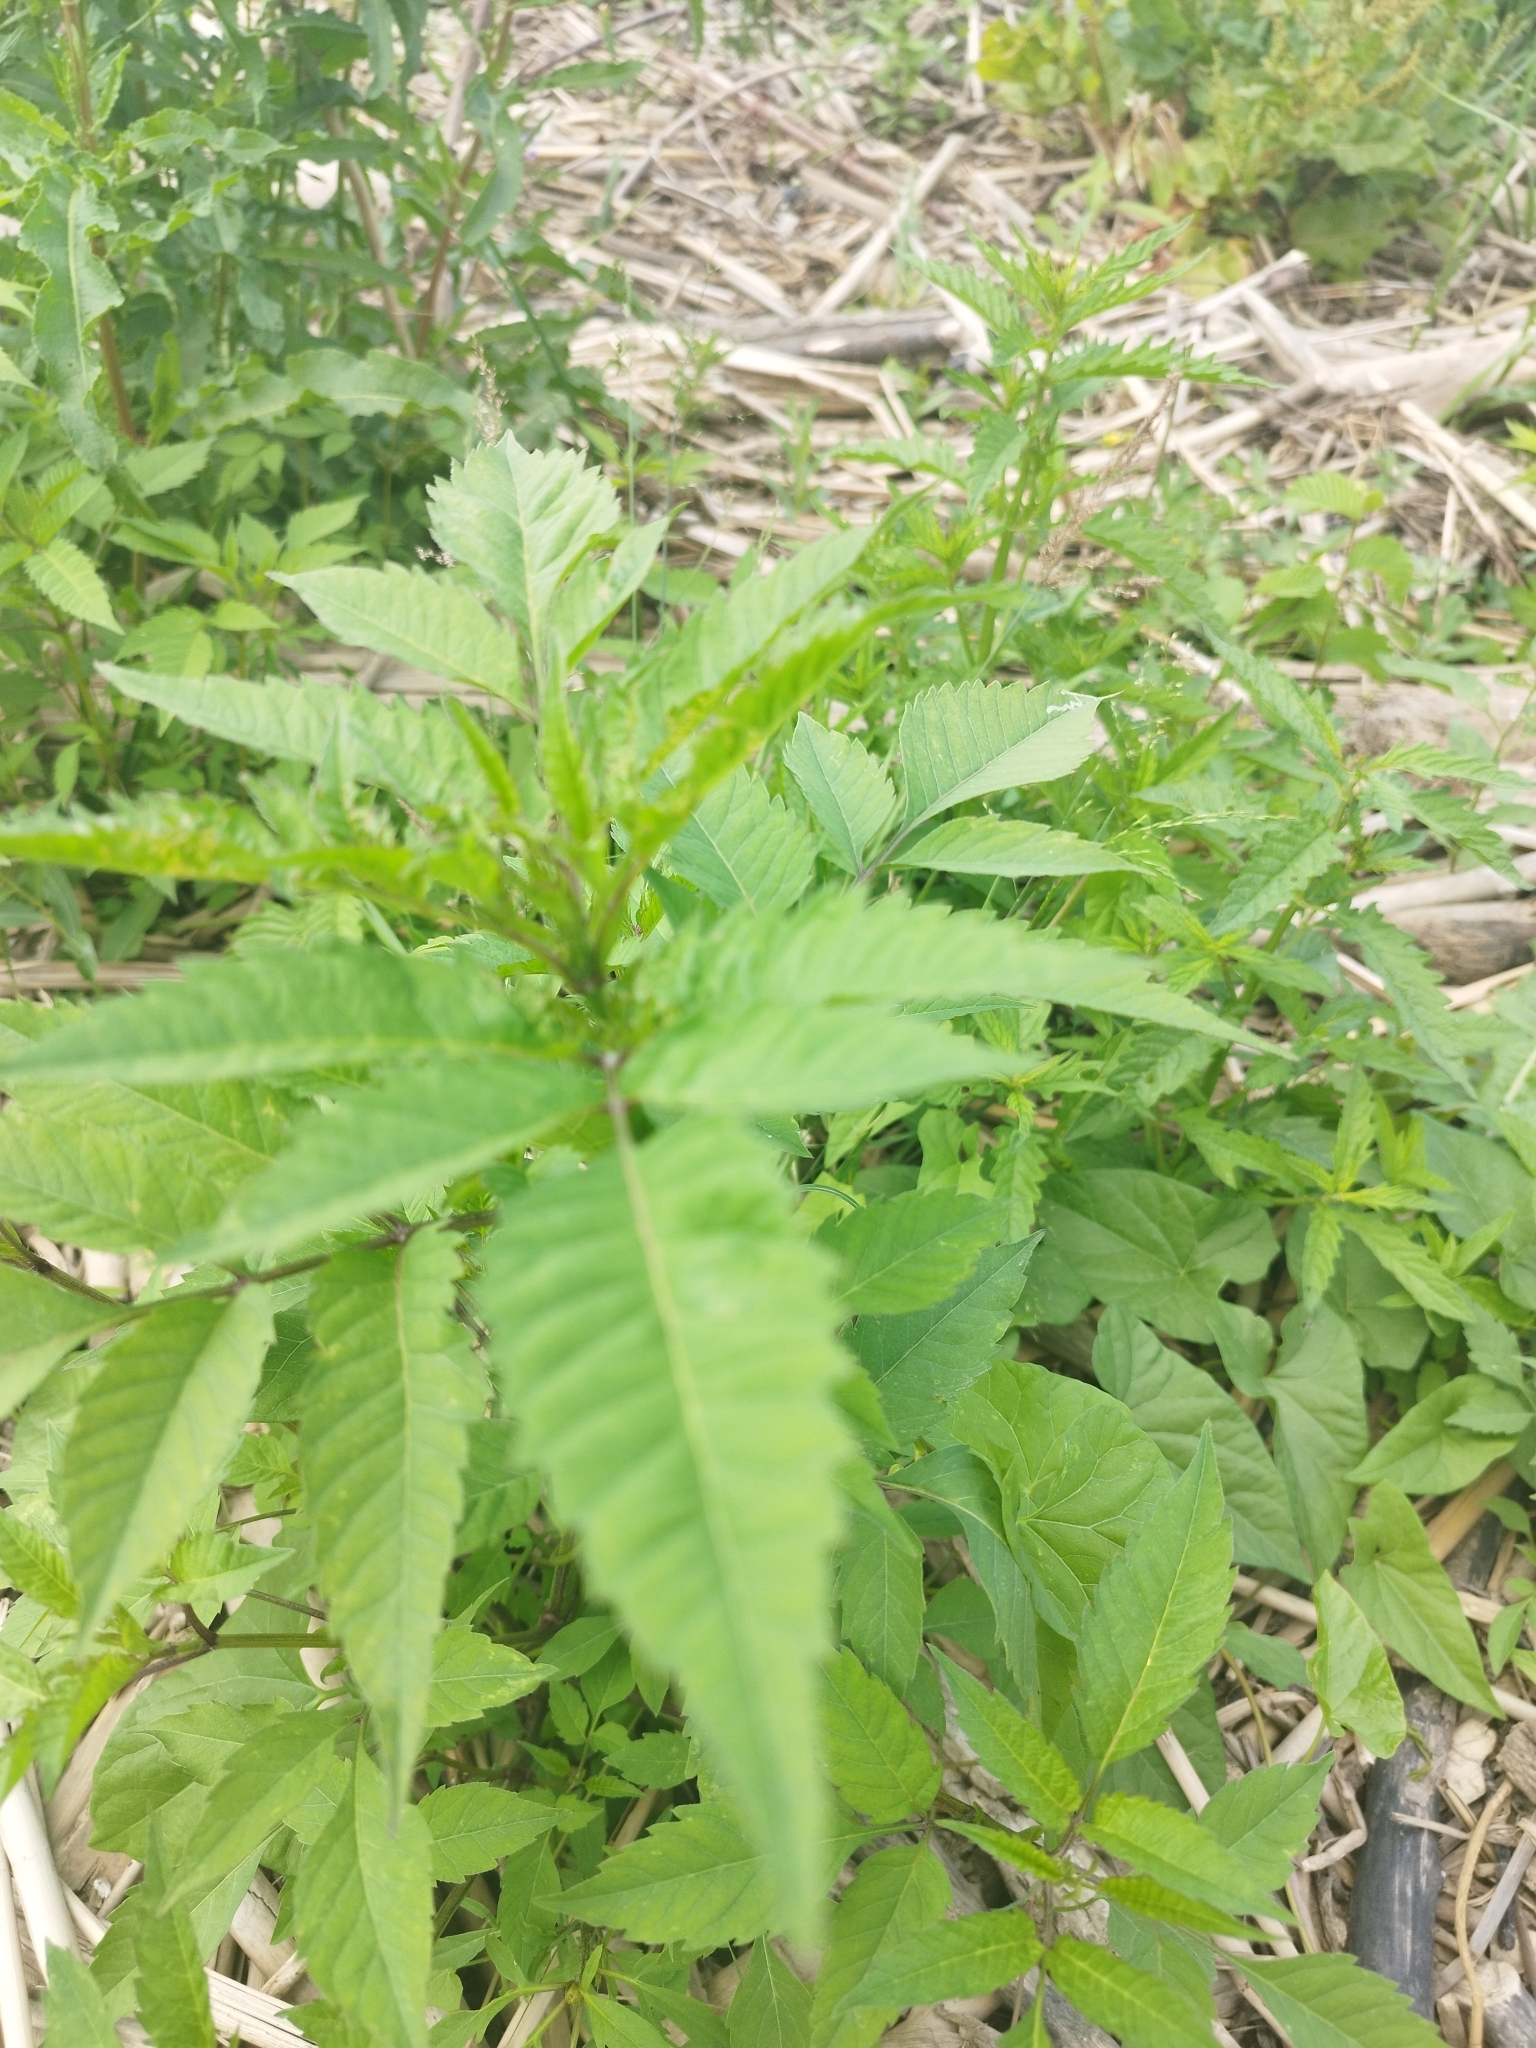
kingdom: Plantae
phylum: Tracheophyta
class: Magnoliopsida
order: Asterales
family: Asteraceae
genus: Bidens
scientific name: Bidens frondosa
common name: Beggarticks
